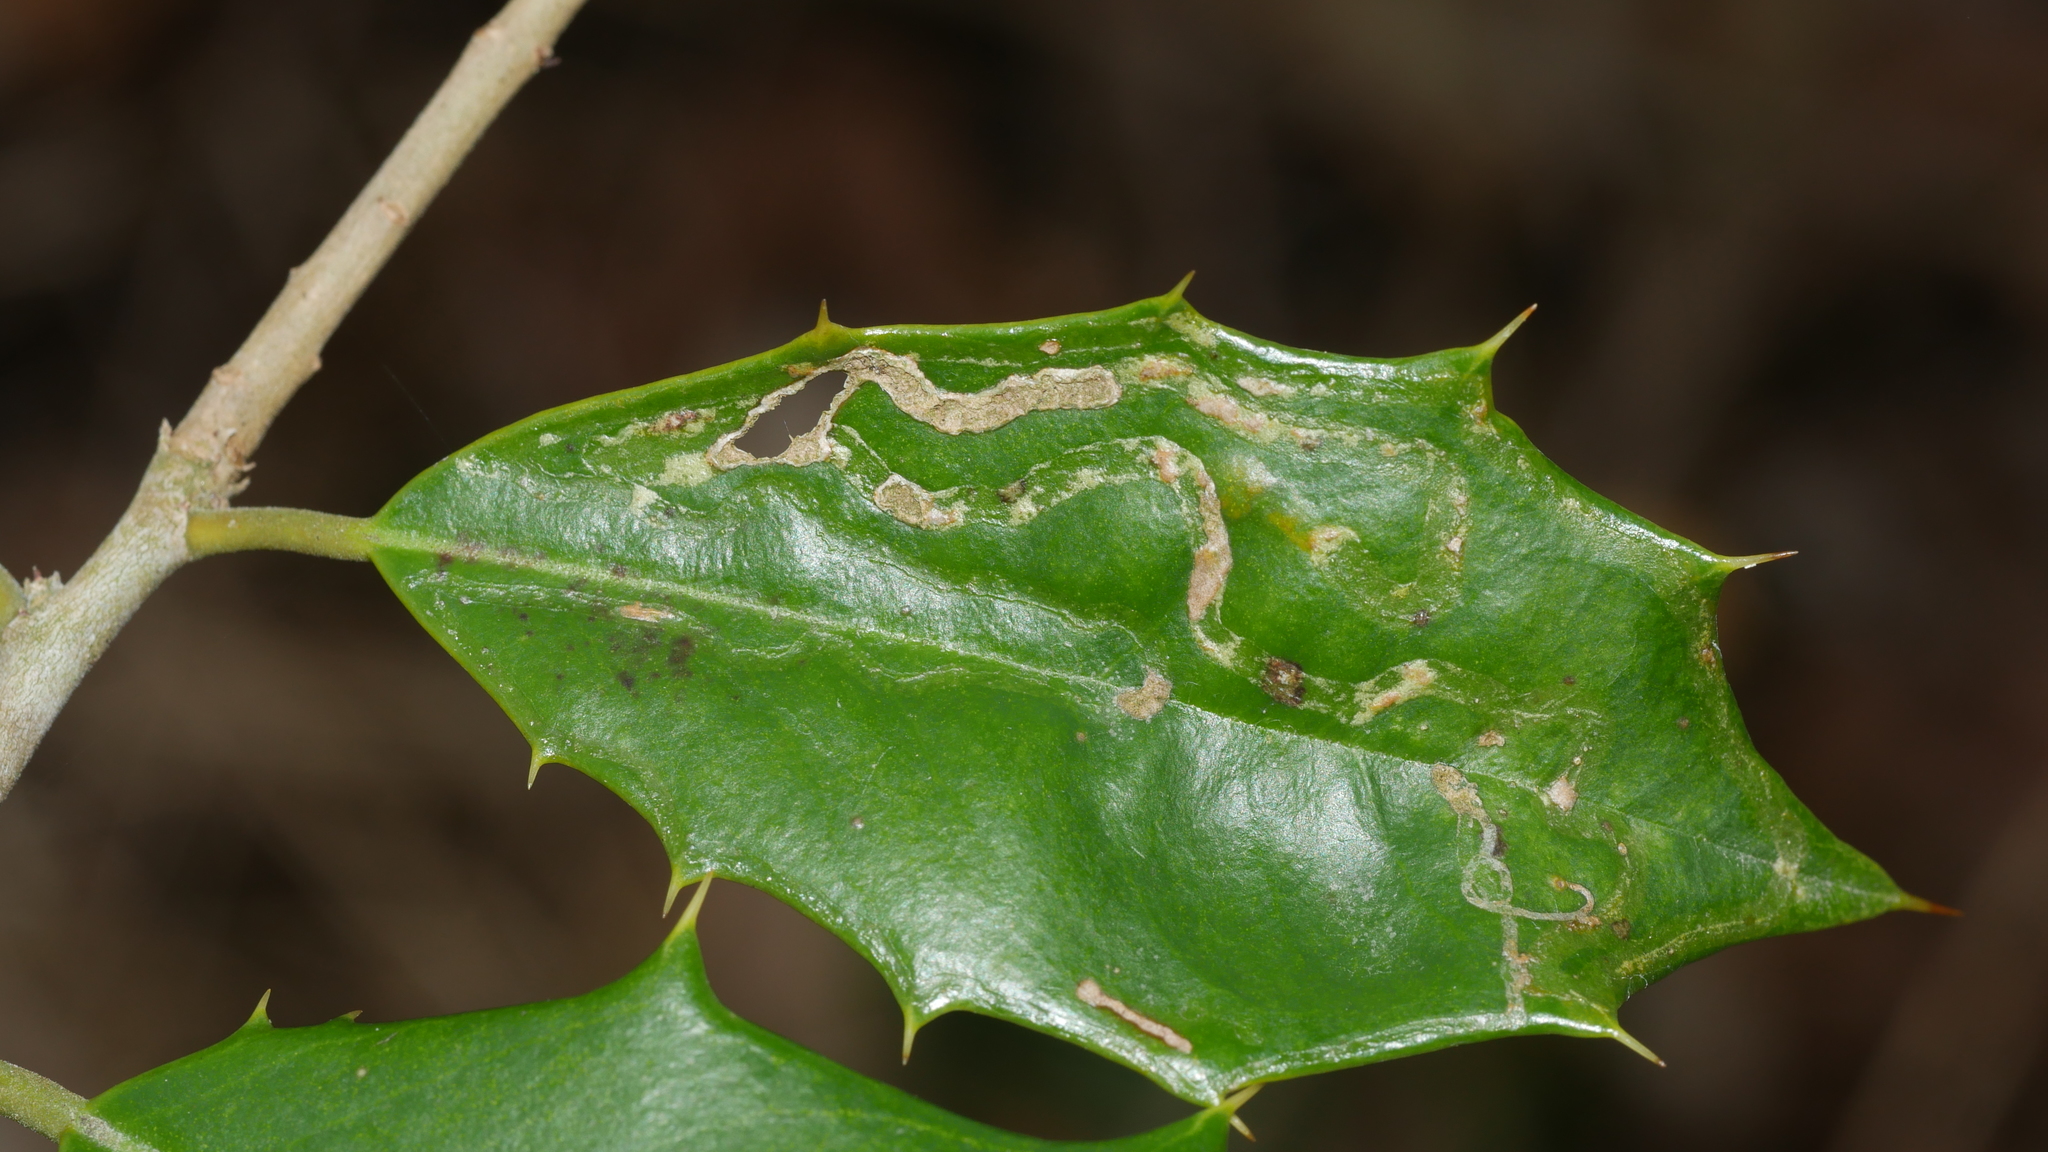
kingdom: Animalia
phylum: Arthropoda
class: Insecta
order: Diptera
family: Agromyzidae
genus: Phytomyza
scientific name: Phytomyza opacae
